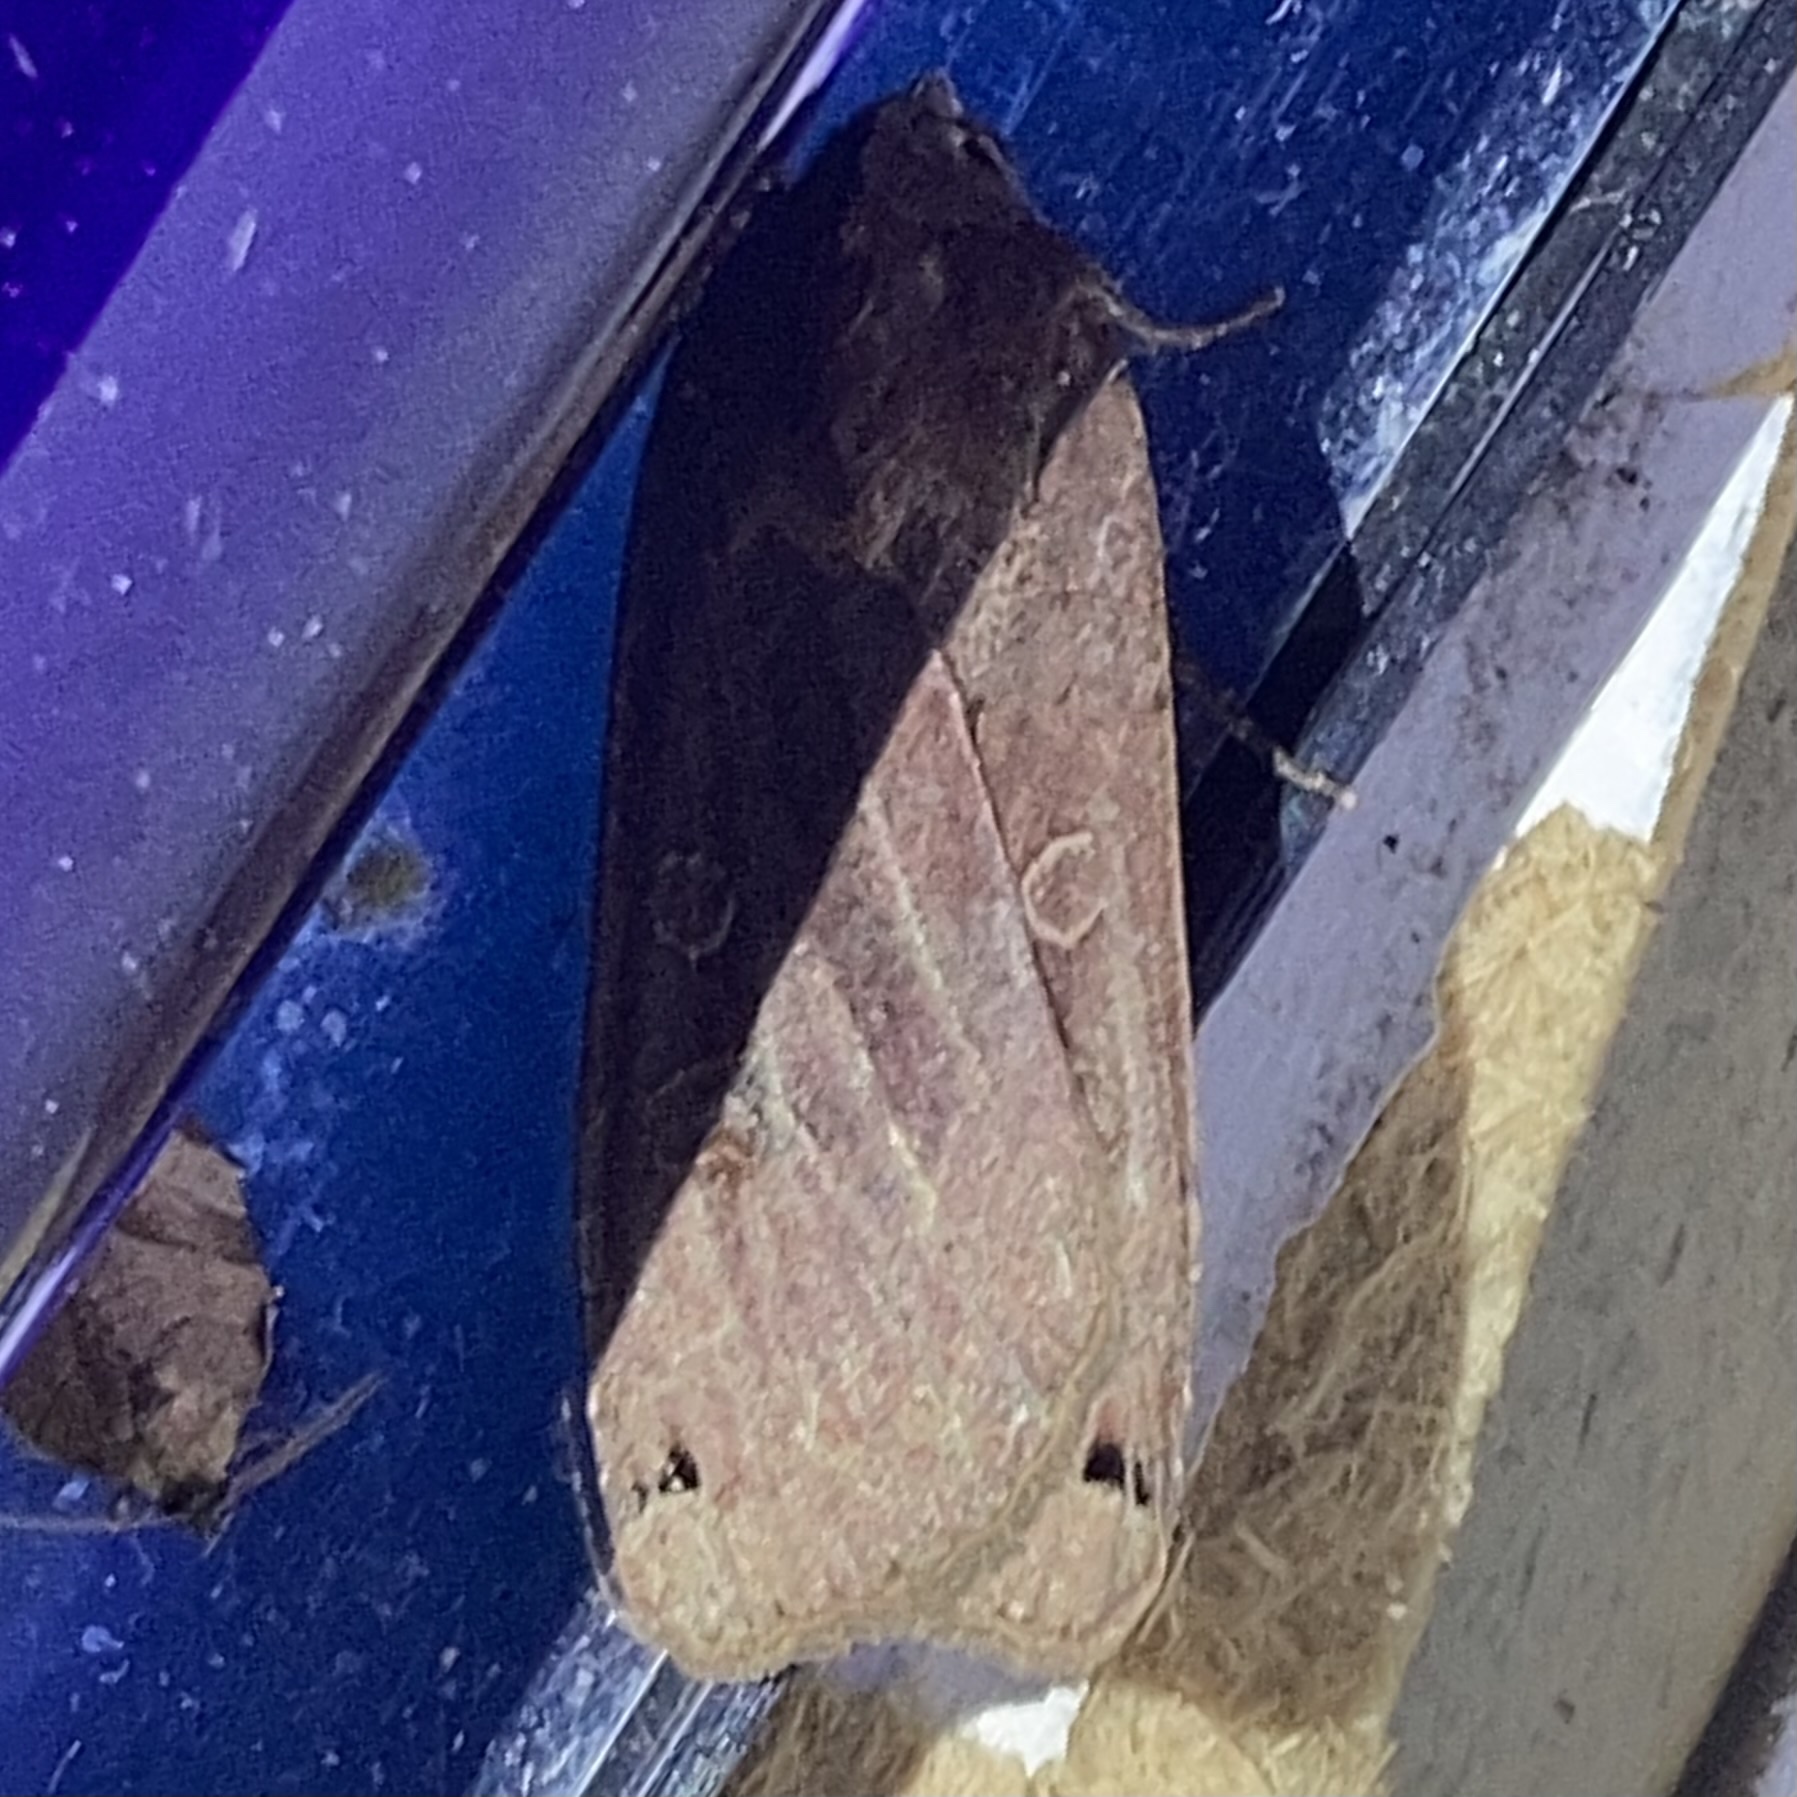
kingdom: Animalia
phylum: Arthropoda
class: Insecta
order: Lepidoptera
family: Noctuidae
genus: Noctua
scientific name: Noctua pronuba
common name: Large yellow underwing
